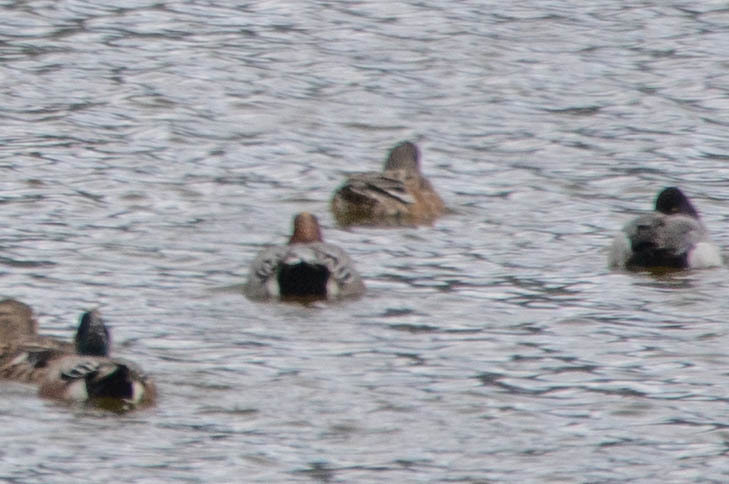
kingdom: Animalia
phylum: Chordata
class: Aves
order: Anseriformes
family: Anatidae
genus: Mareca
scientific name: Mareca penelope
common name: Eurasian wigeon
